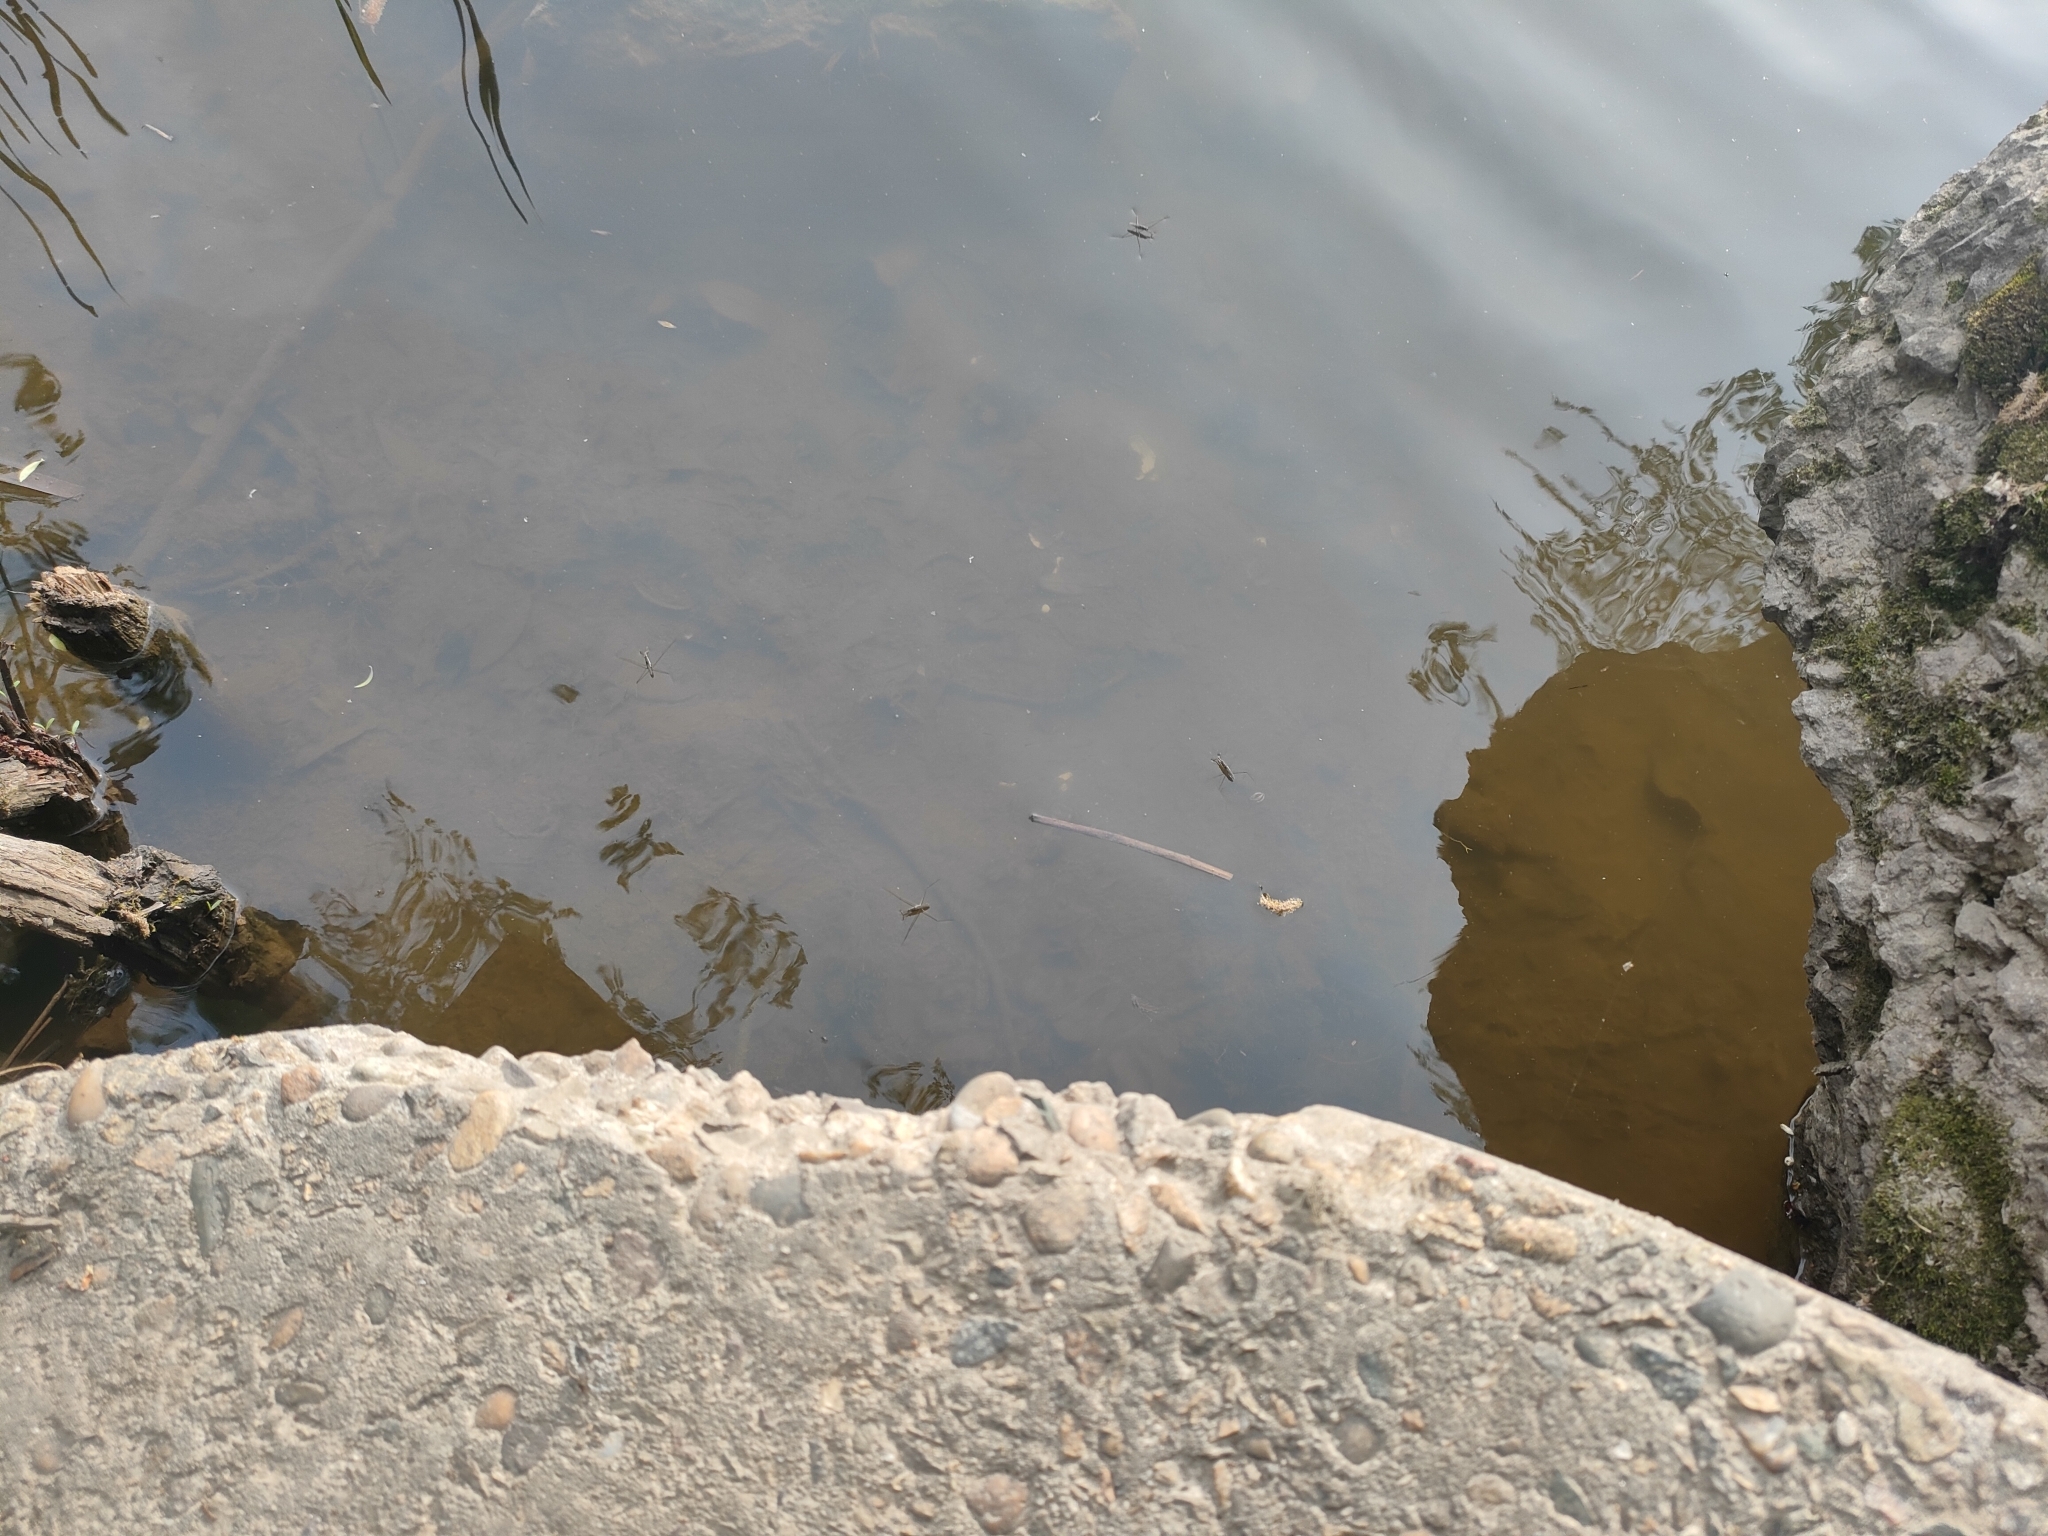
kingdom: Animalia
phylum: Arthropoda
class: Insecta
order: Hemiptera
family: Gerridae
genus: Aquarius
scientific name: Aquarius paludum
